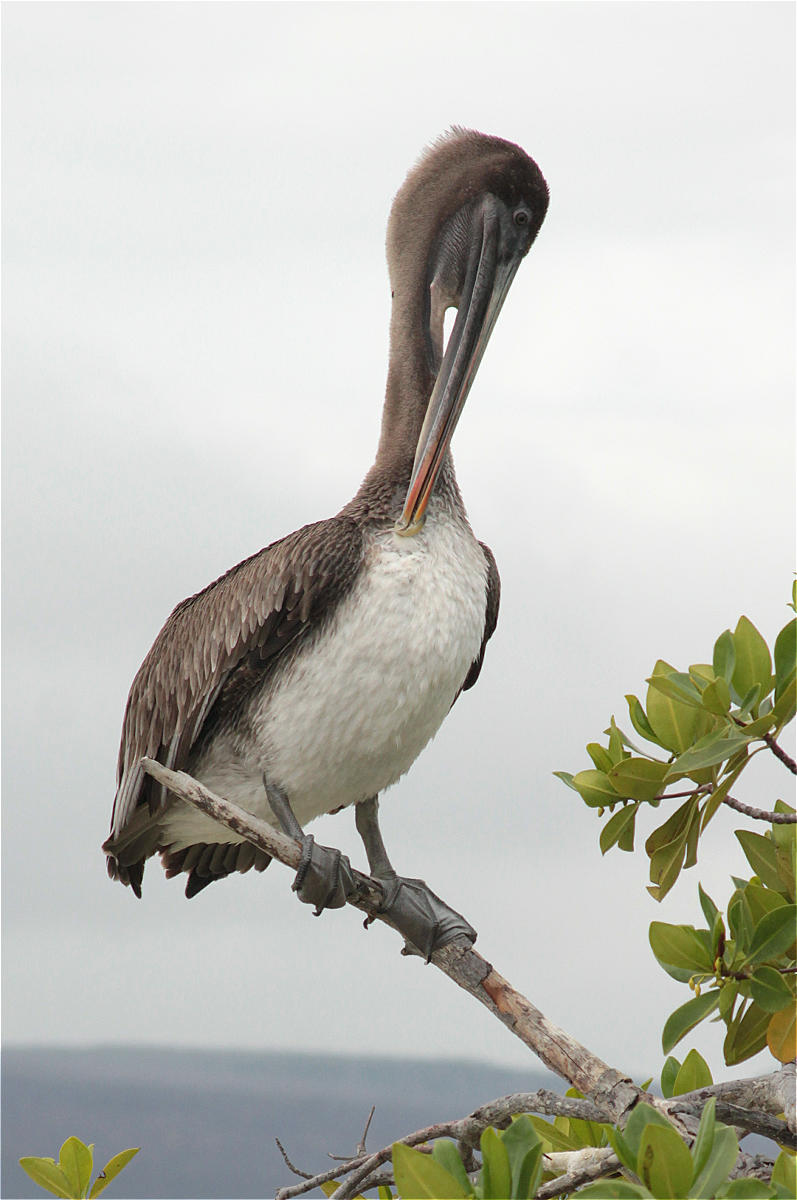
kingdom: Animalia
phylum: Chordata
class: Aves
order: Pelecaniformes
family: Pelecanidae
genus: Pelecanus
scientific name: Pelecanus occidentalis
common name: Brown pelican
